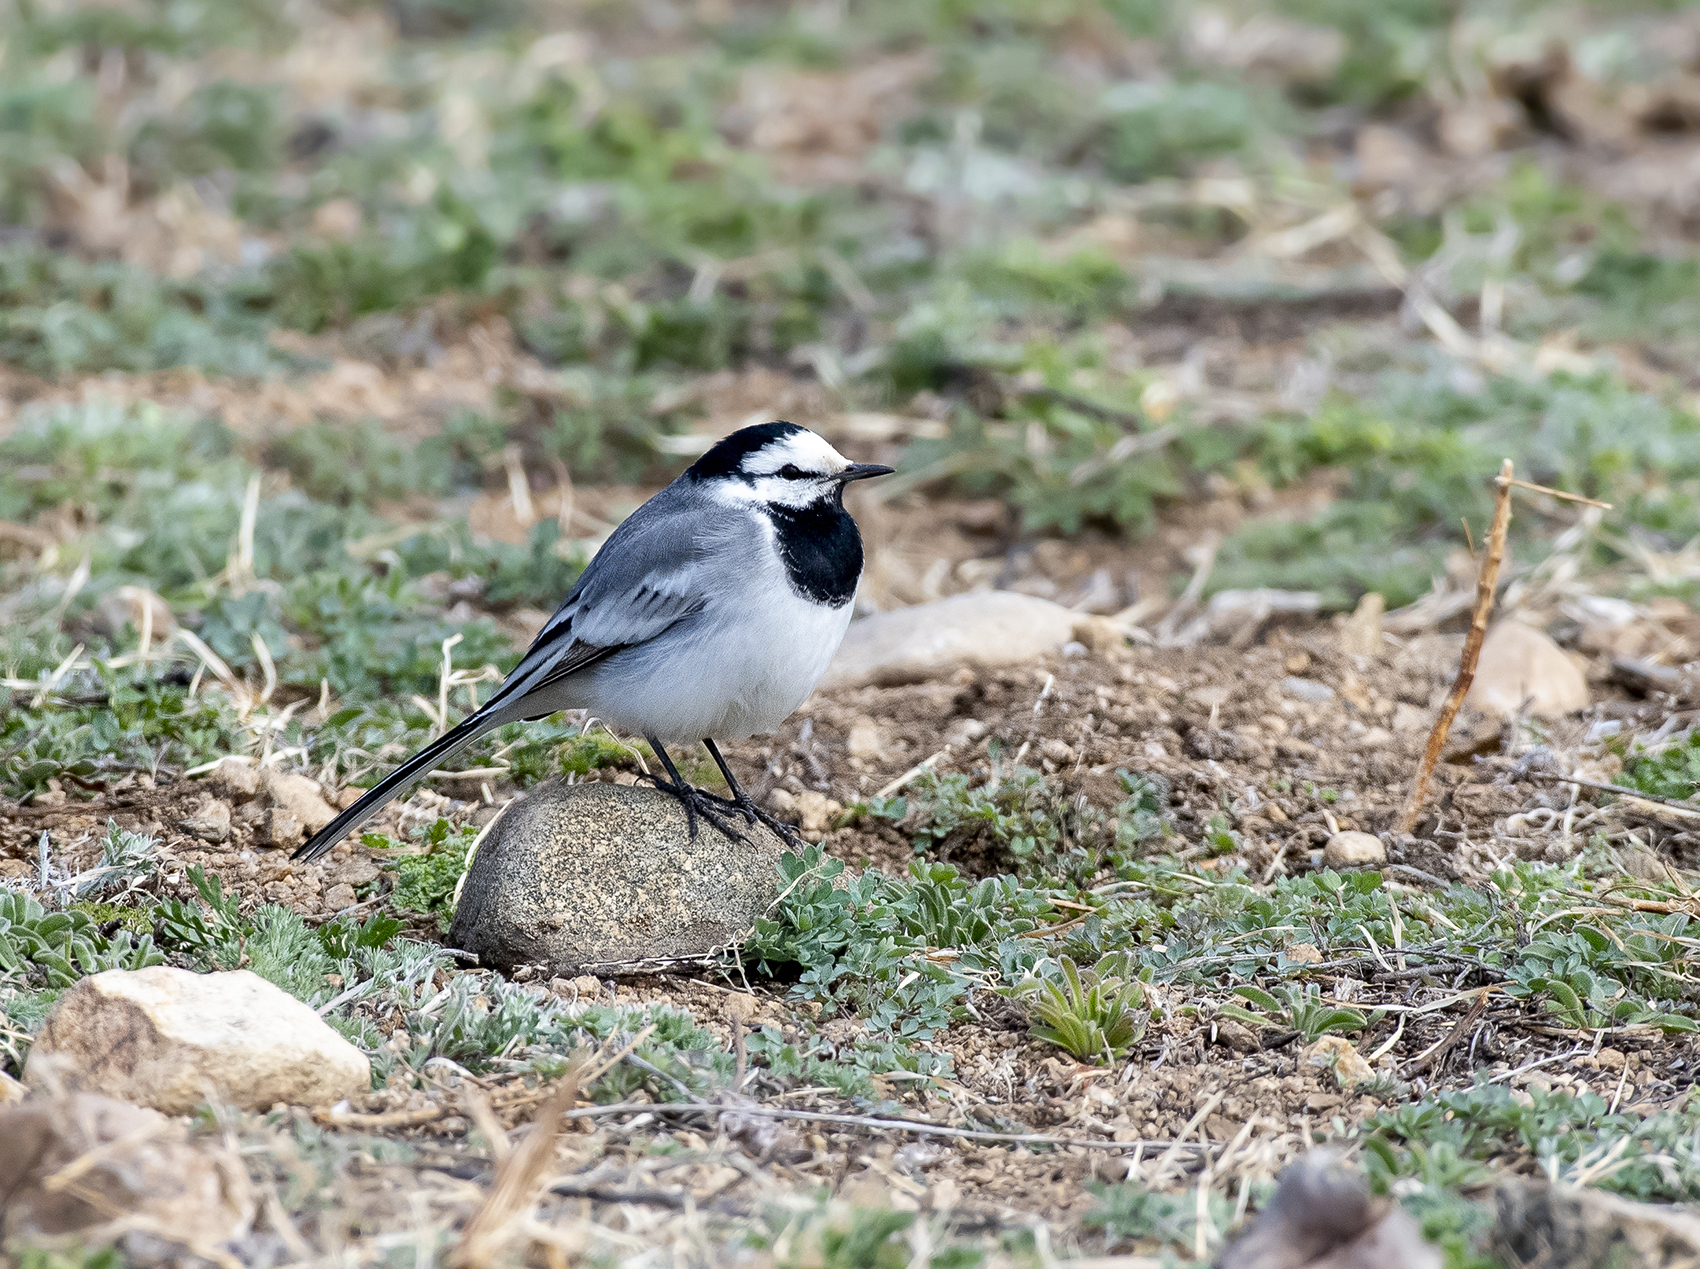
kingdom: Animalia
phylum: Chordata
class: Aves
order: Passeriformes
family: Motacillidae
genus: Motacilla
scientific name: Motacilla alba
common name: White wagtail
